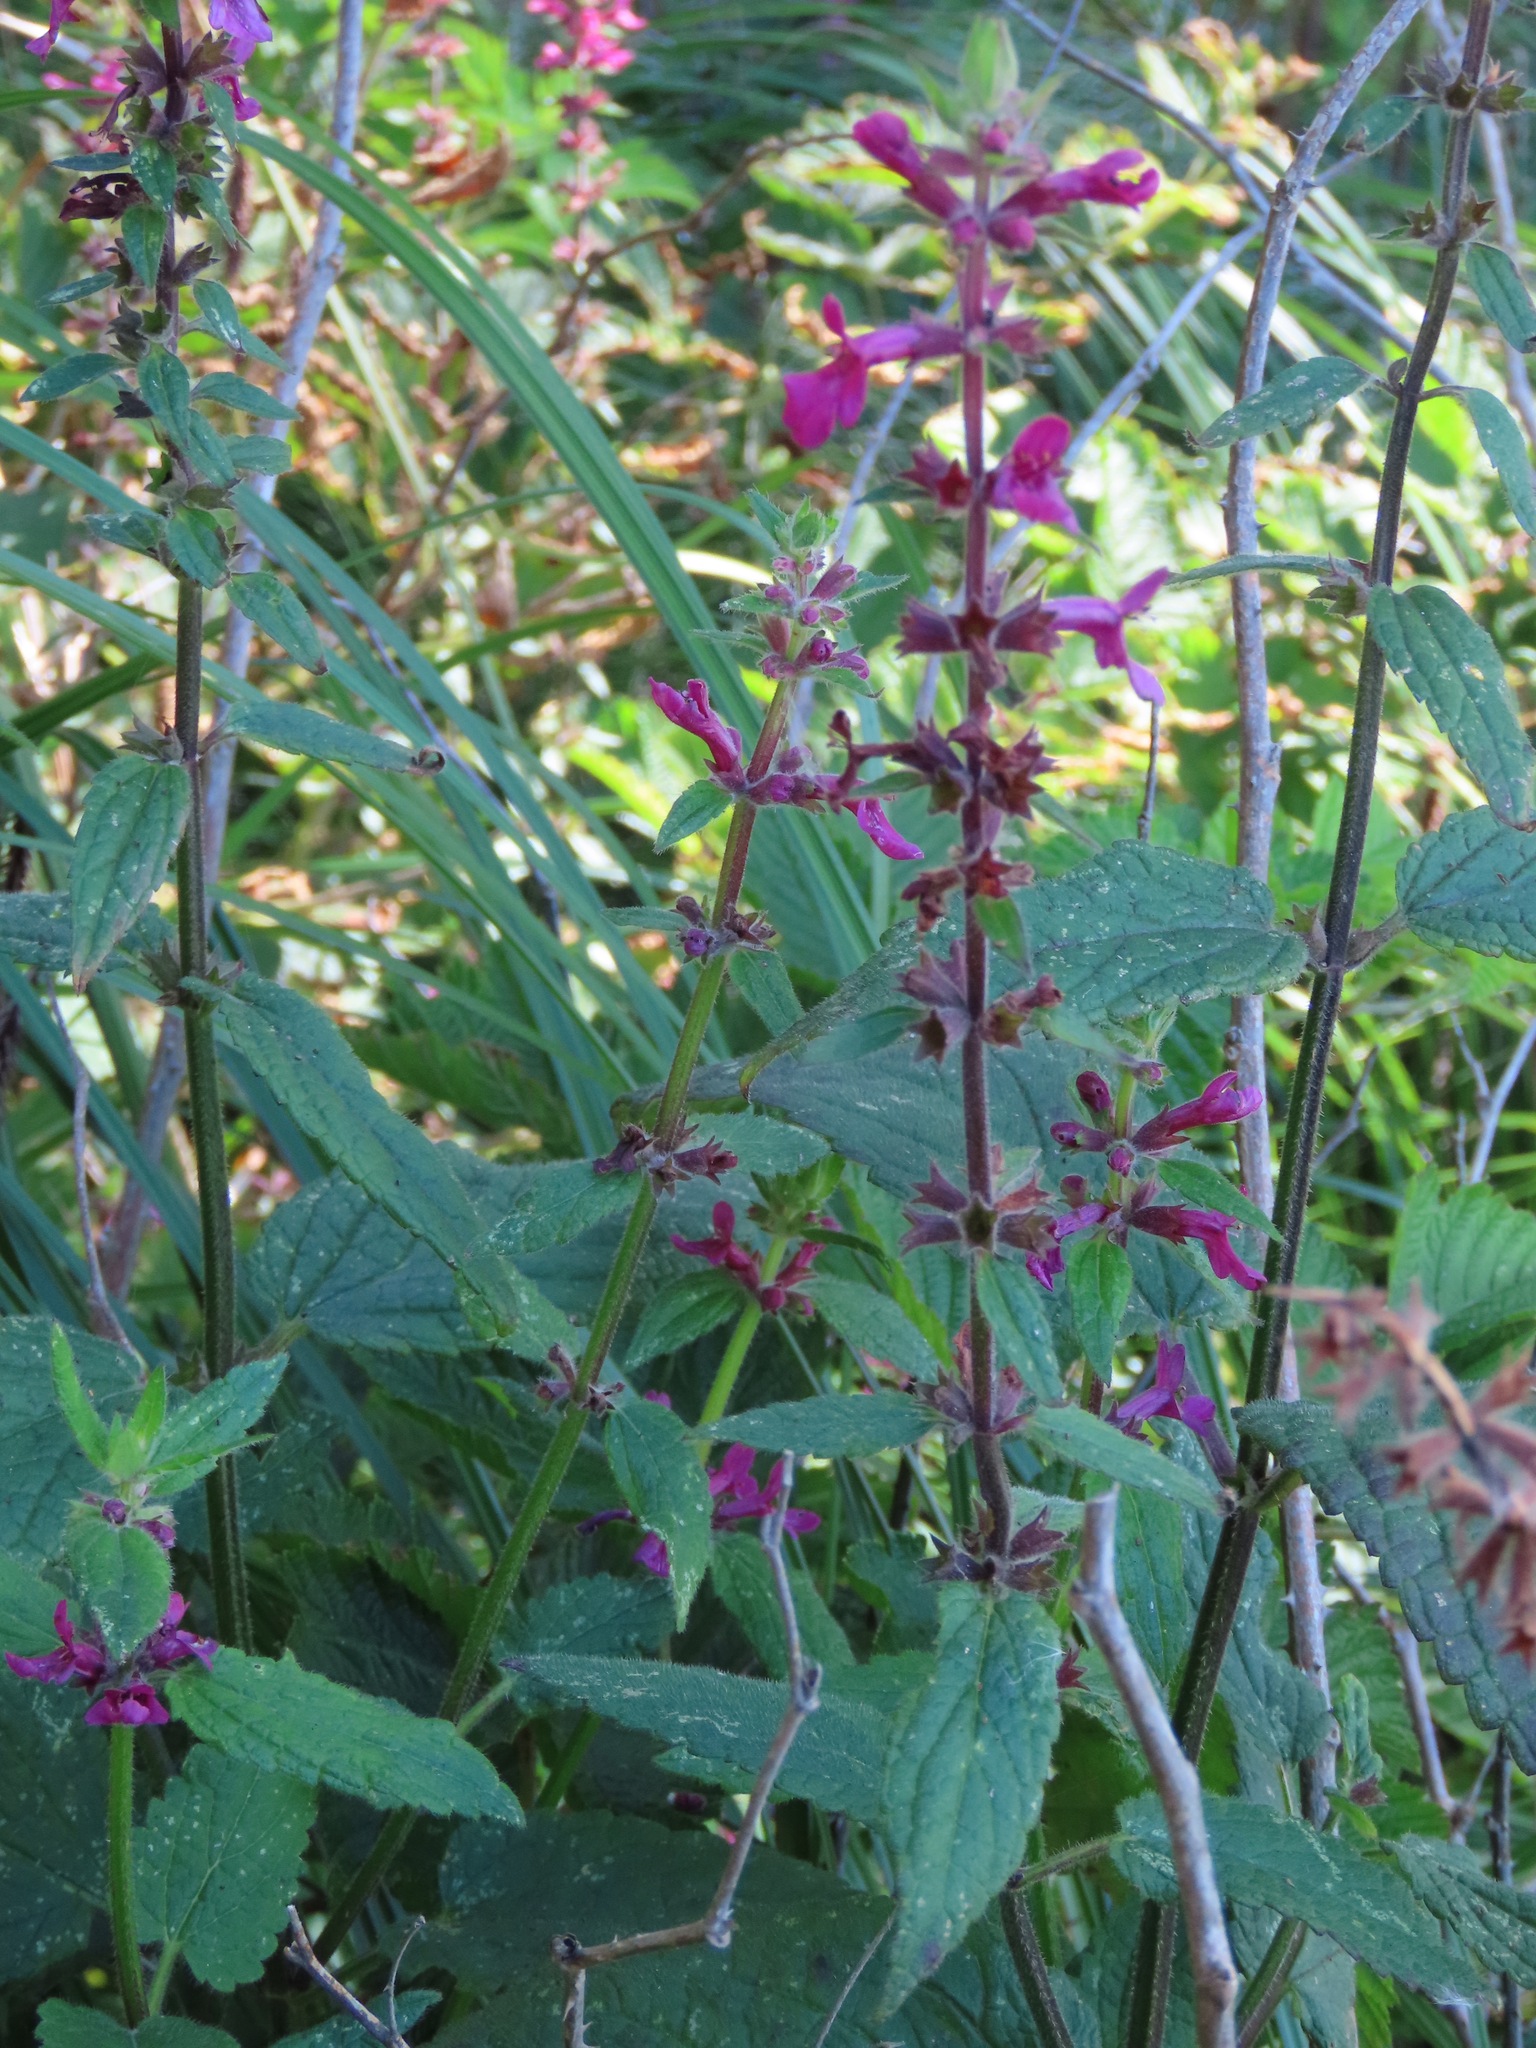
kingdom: Plantae
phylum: Tracheophyta
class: Magnoliopsida
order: Lamiales
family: Lamiaceae
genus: Stachys
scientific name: Stachys chamissonis
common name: Coastal hedge-nettle
